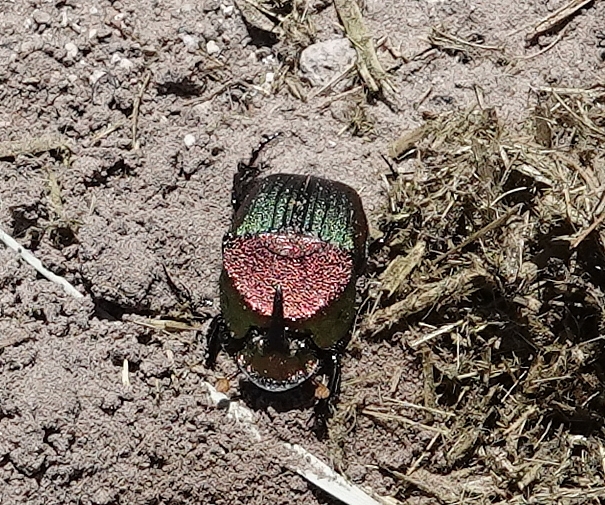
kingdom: Animalia
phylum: Arthropoda
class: Insecta
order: Coleoptera
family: Scarabaeidae
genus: Phanaeus
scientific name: Phanaeus vindex
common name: Rainbow scarab
